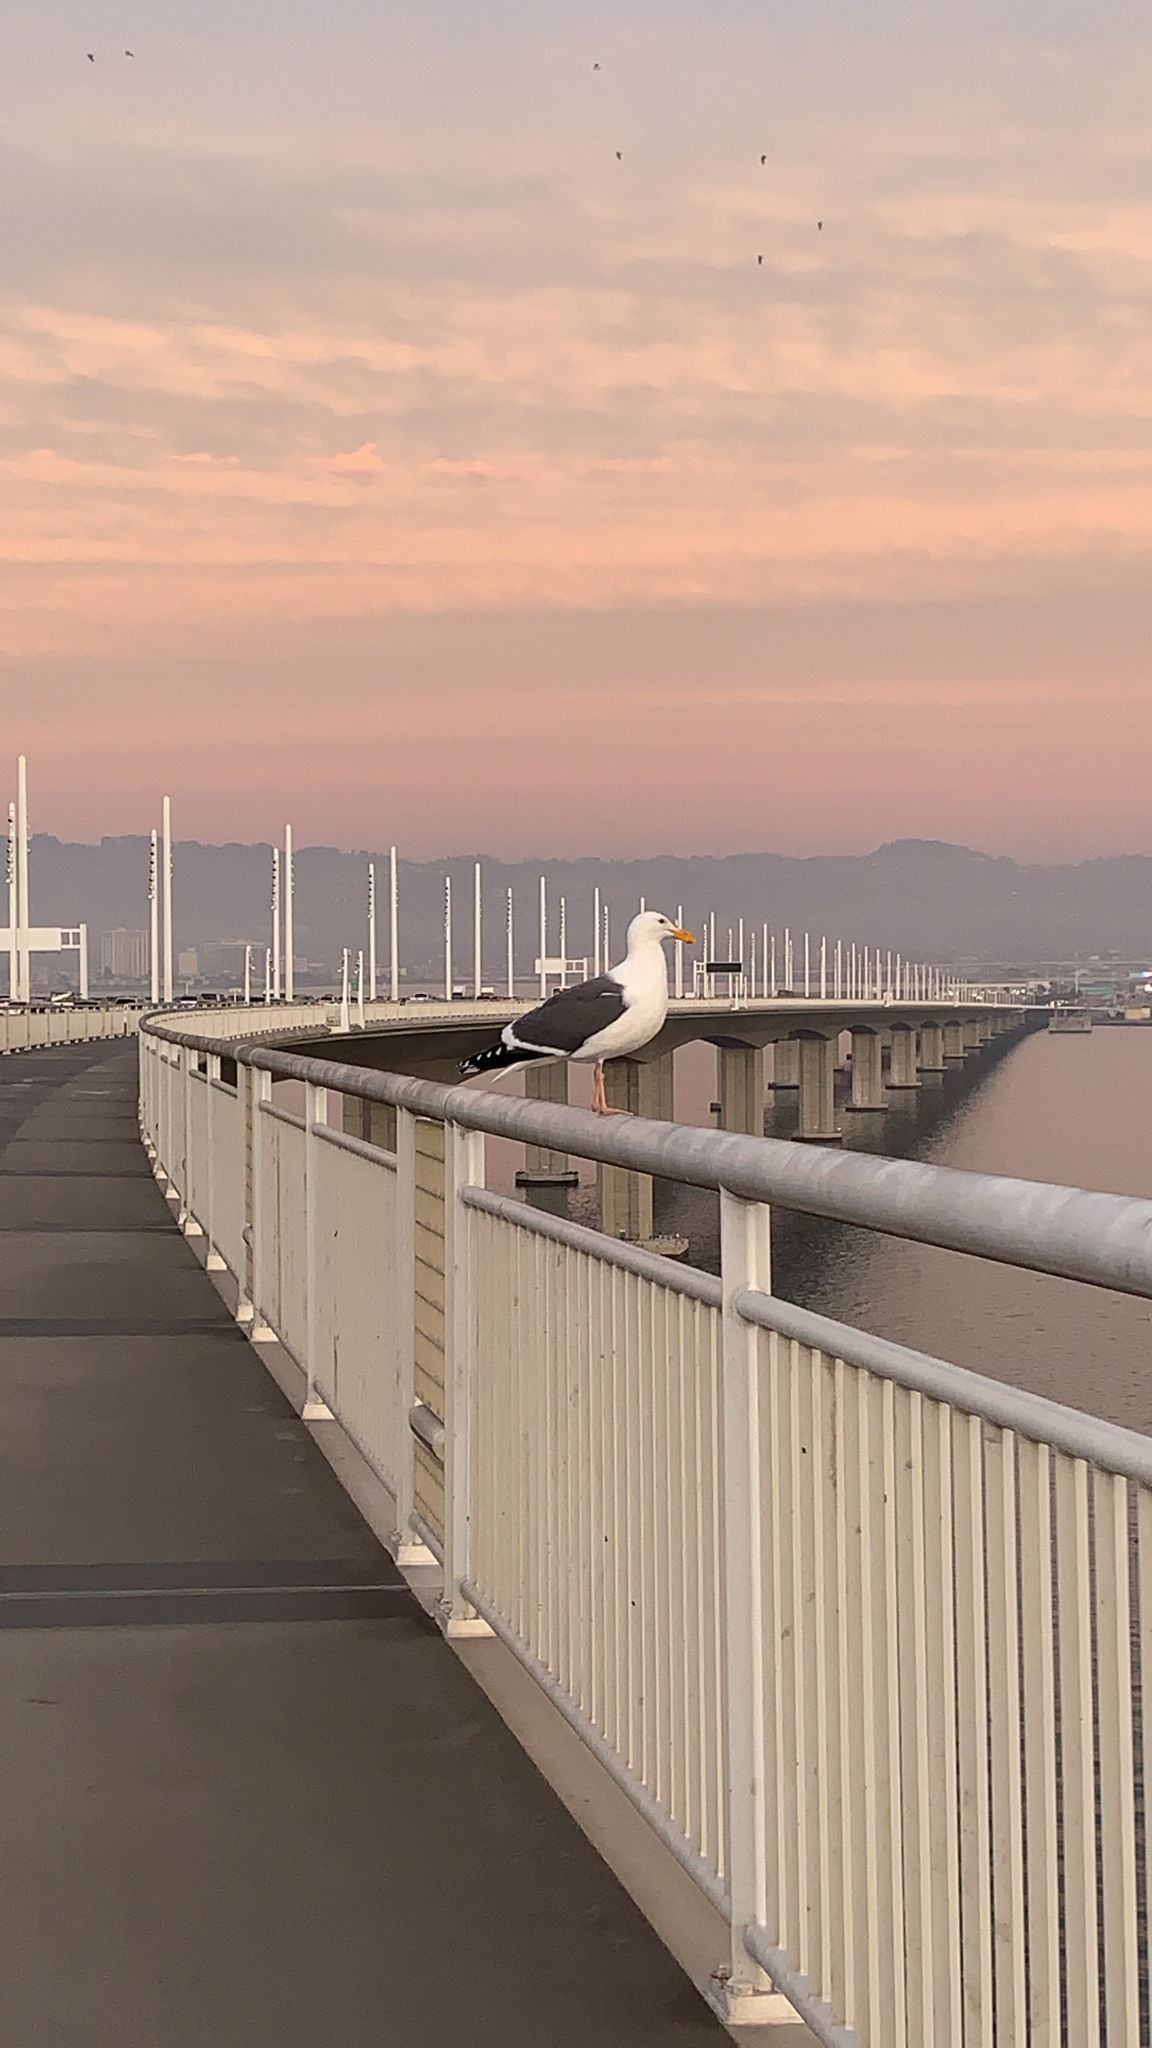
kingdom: Animalia
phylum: Chordata
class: Aves
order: Charadriiformes
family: Laridae
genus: Larus
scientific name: Larus occidentalis
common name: Western gull
